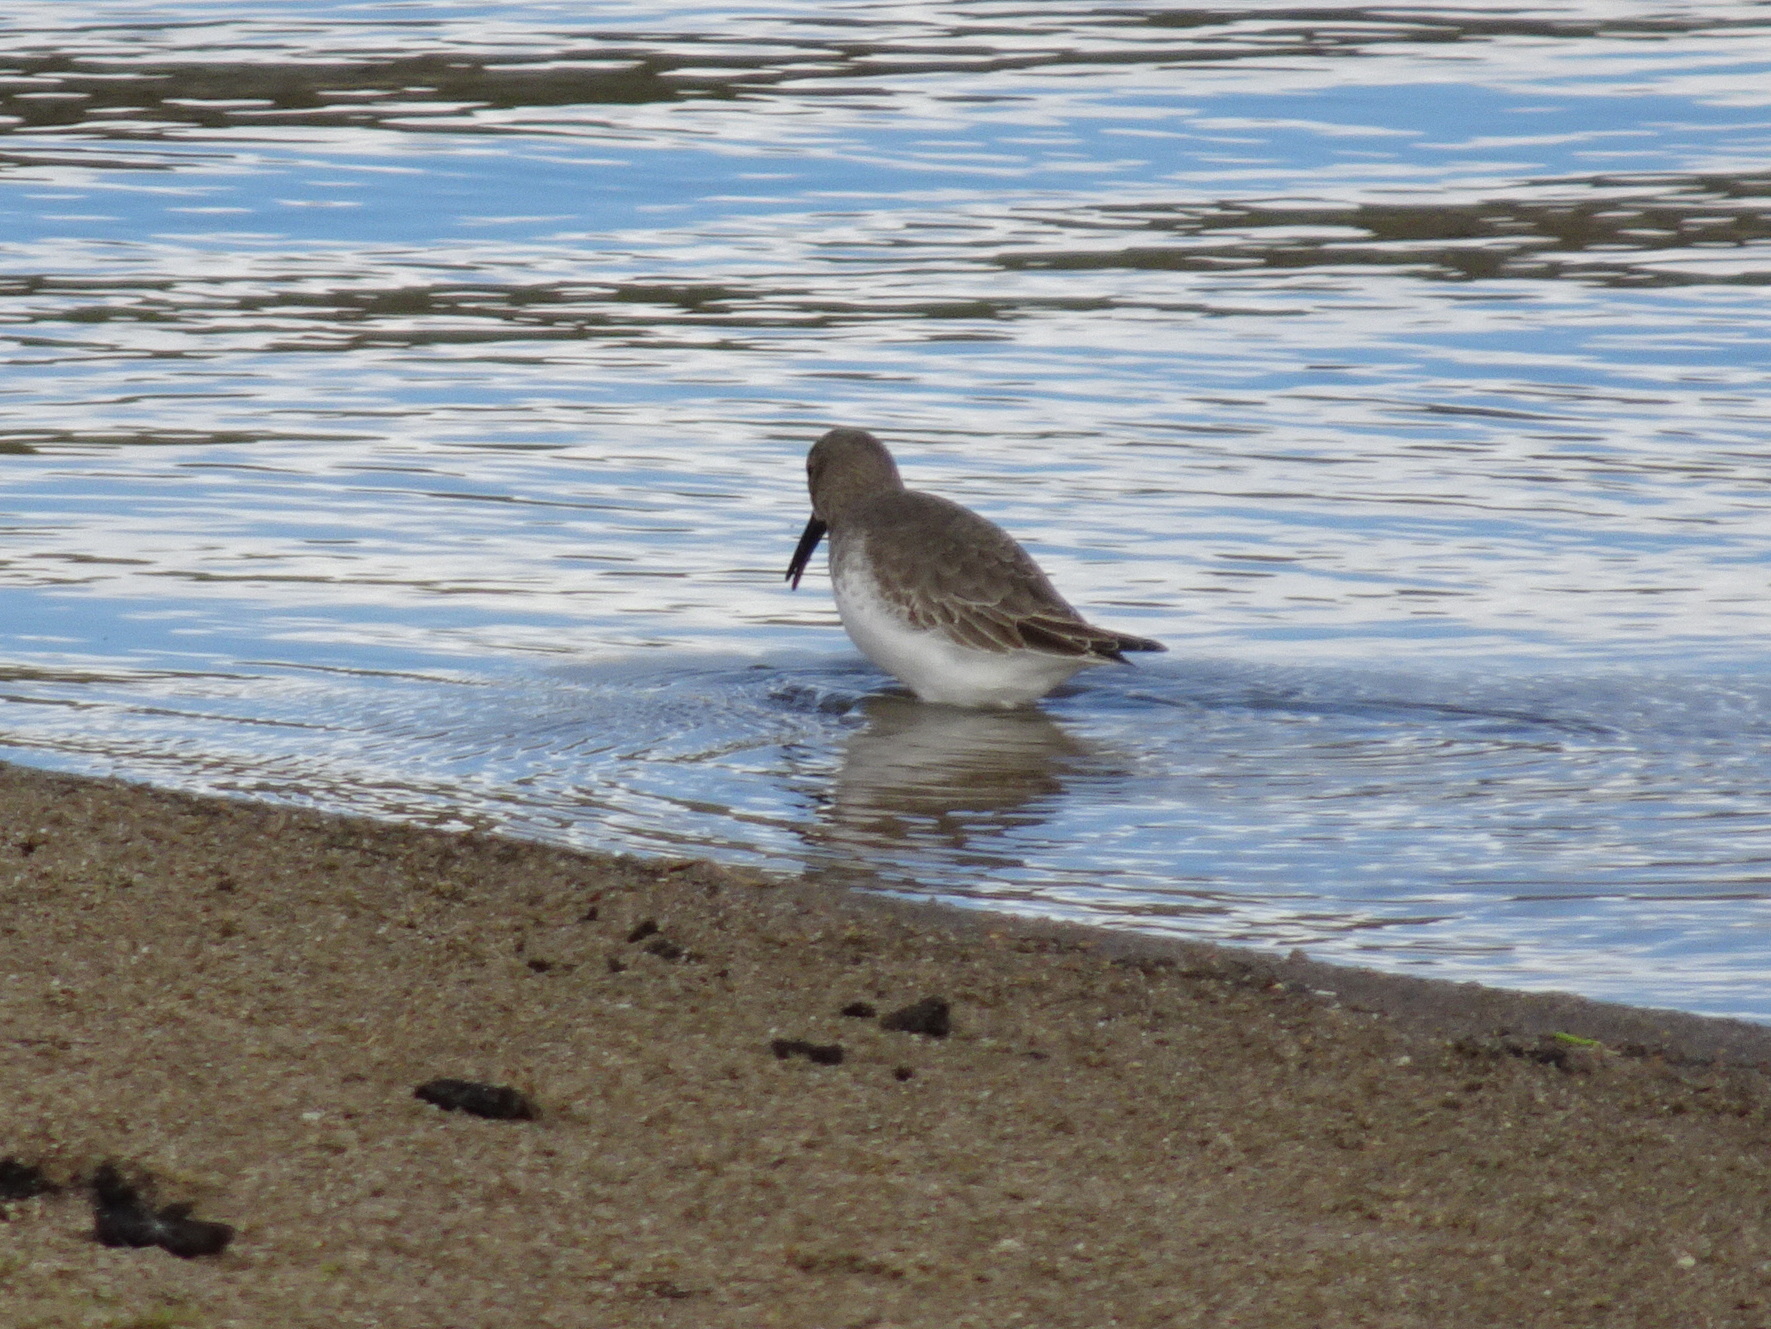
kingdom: Animalia
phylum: Chordata
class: Aves
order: Charadriiformes
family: Scolopacidae
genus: Calidris
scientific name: Calidris alpina
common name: Dunlin
